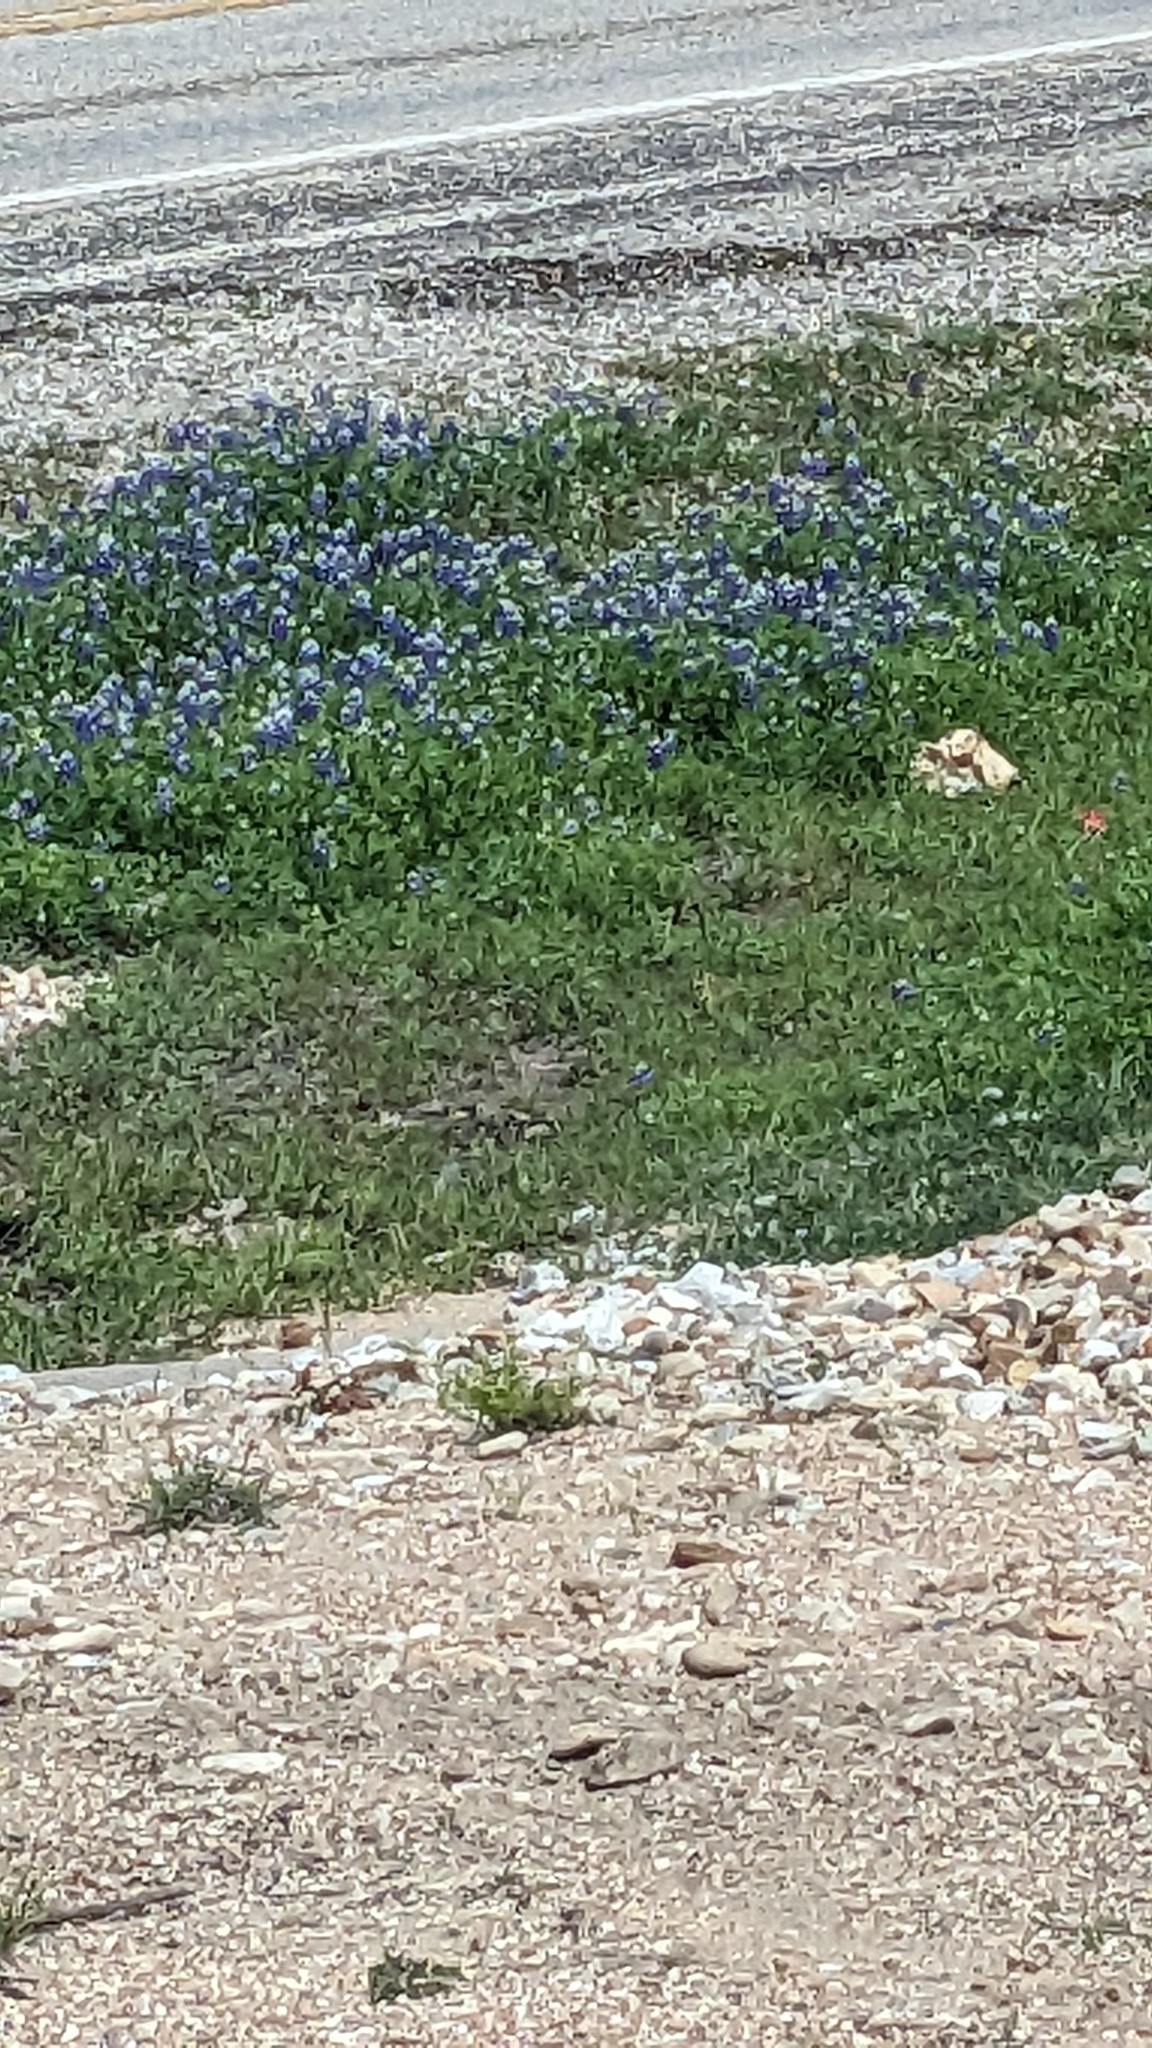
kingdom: Plantae
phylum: Tracheophyta
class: Magnoliopsida
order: Fabales
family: Fabaceae
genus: Lupinus
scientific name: Lupinus texensis
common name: Texas bluebonnet
